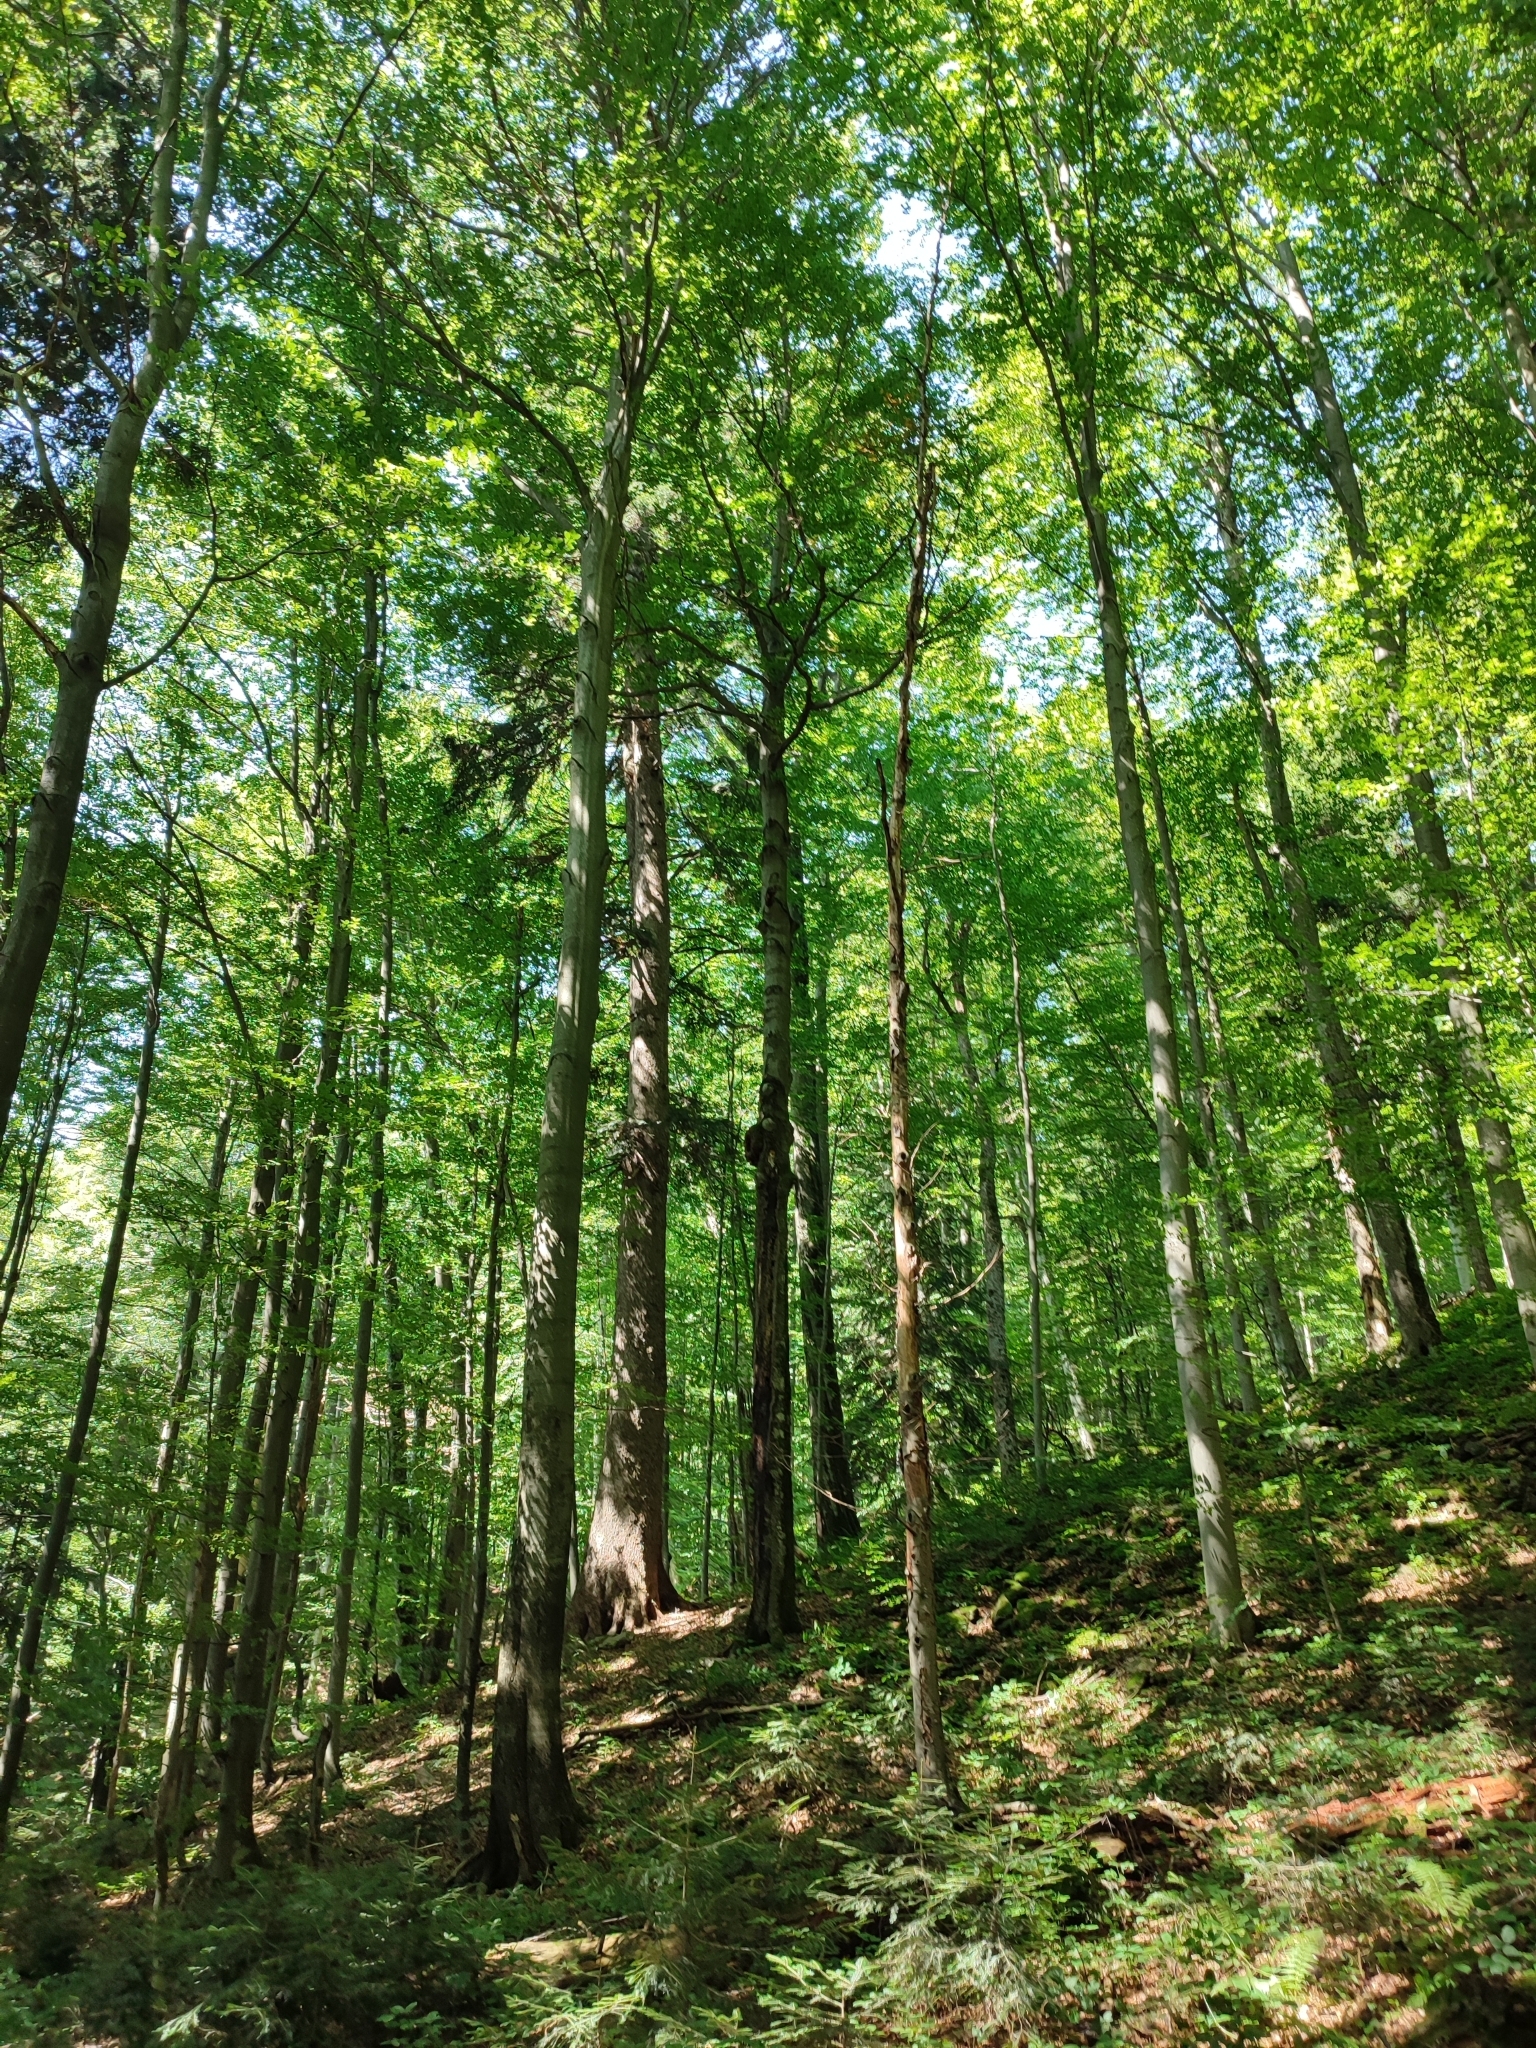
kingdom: Plantae
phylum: Tracheophyta
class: Pinopsida
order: Pinales
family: Pinaceae
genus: Abies
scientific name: Abies alba
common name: Silver fir
